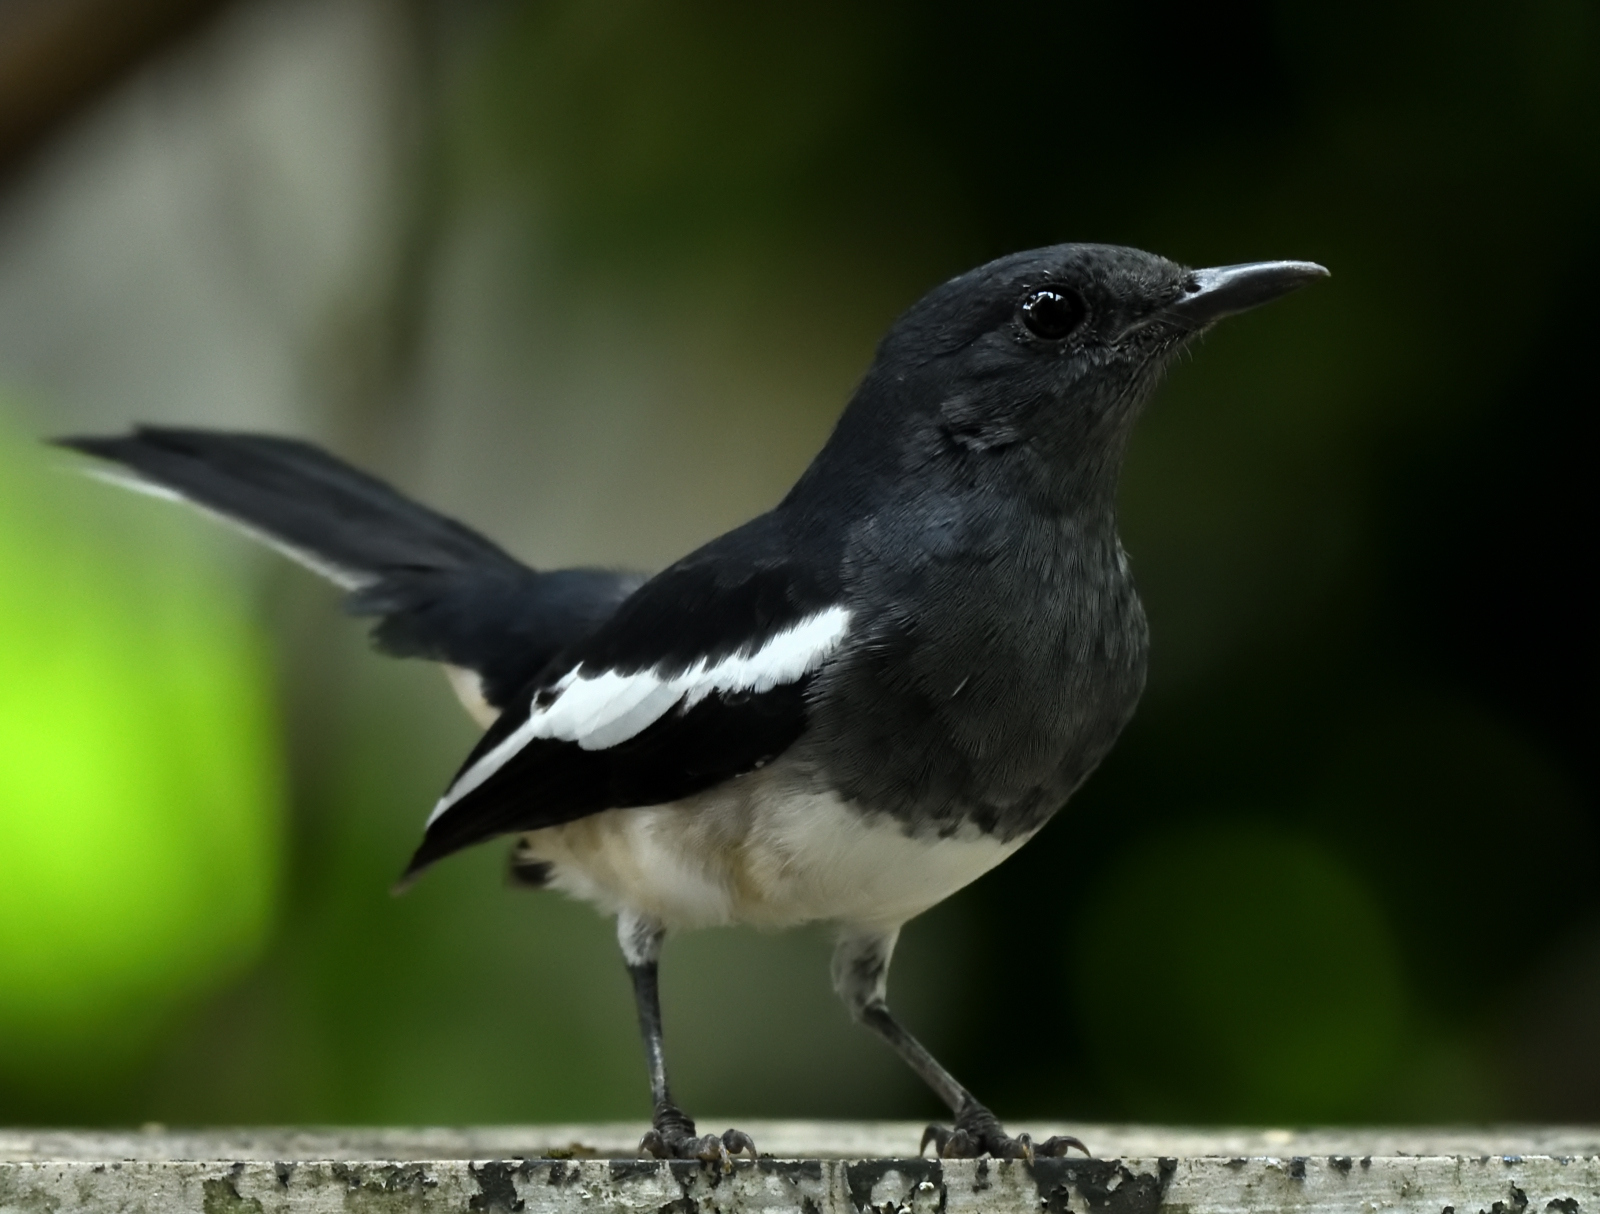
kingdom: Animalia
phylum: Chordata
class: Aves
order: Passeriformes
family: Muscicapidae
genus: Copsychus
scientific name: Copsychus saularis
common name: Oriental magpie-robin
